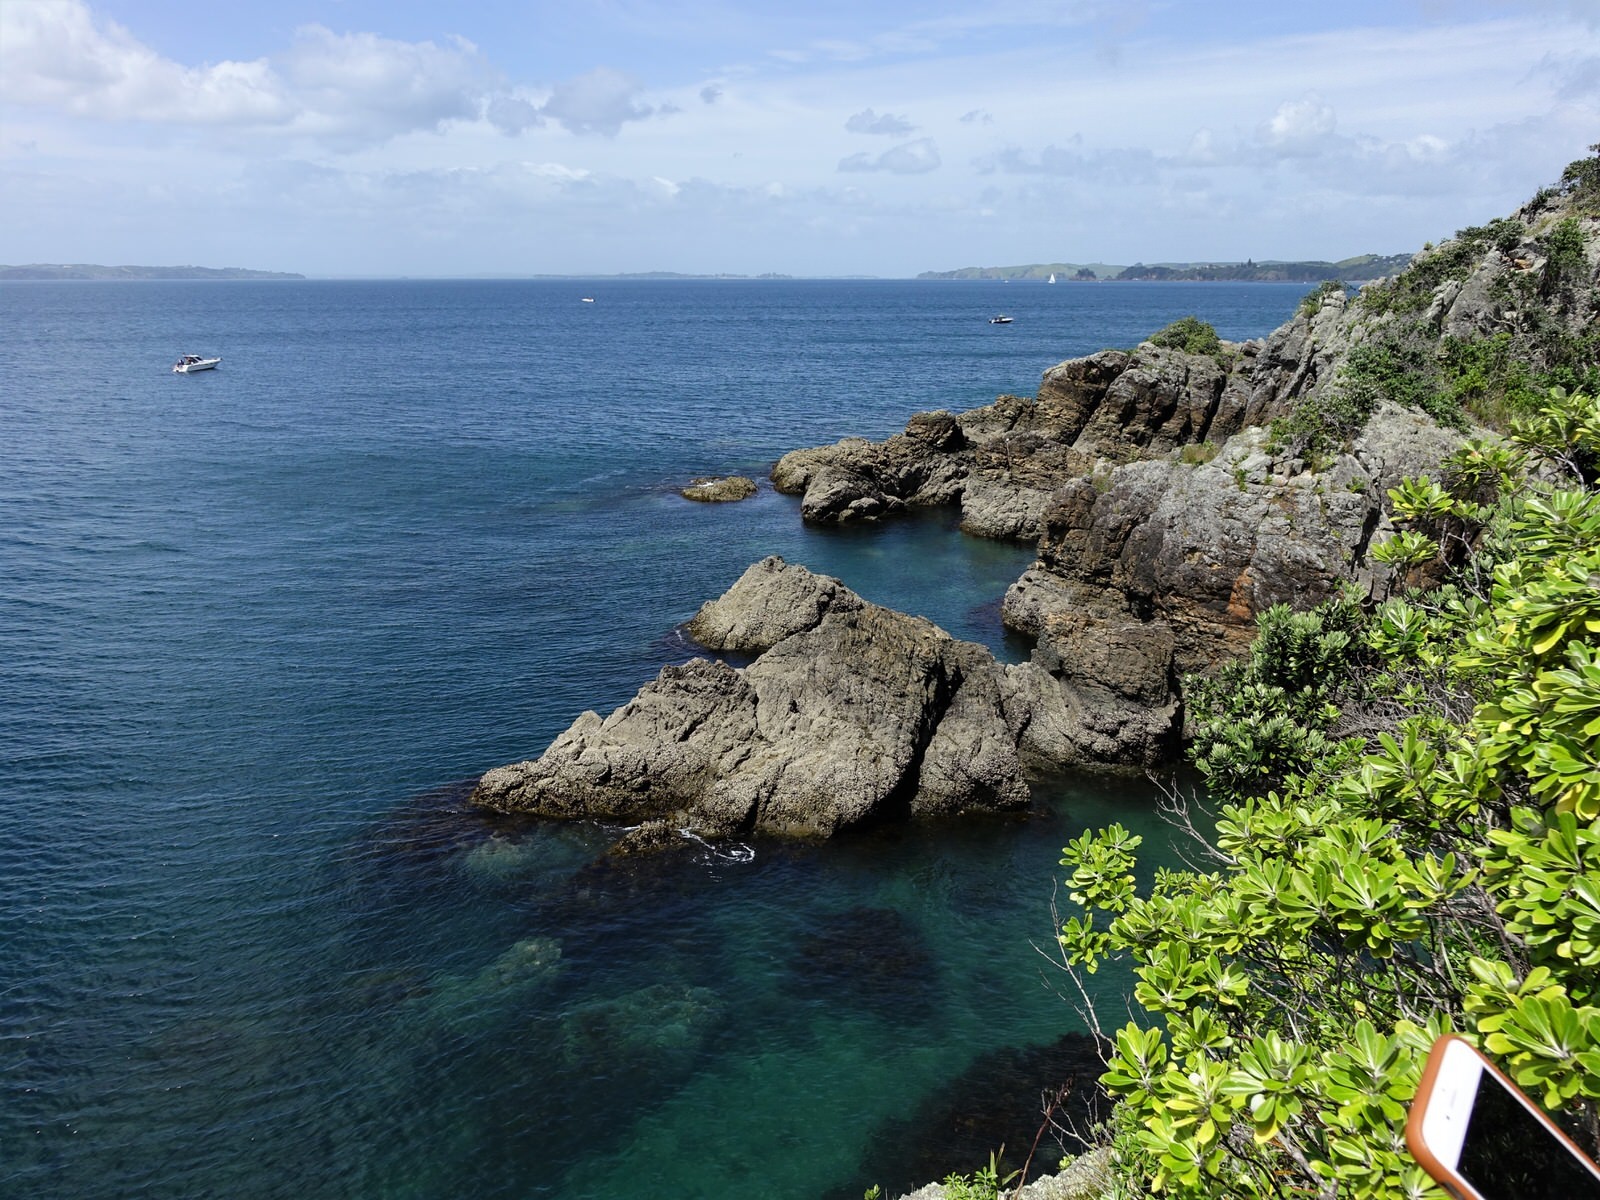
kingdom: Animalia
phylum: Chordata
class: Aves
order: Charadriiformes
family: Laridae
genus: Larus
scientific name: Larus dominicanus
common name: Kelp gull
